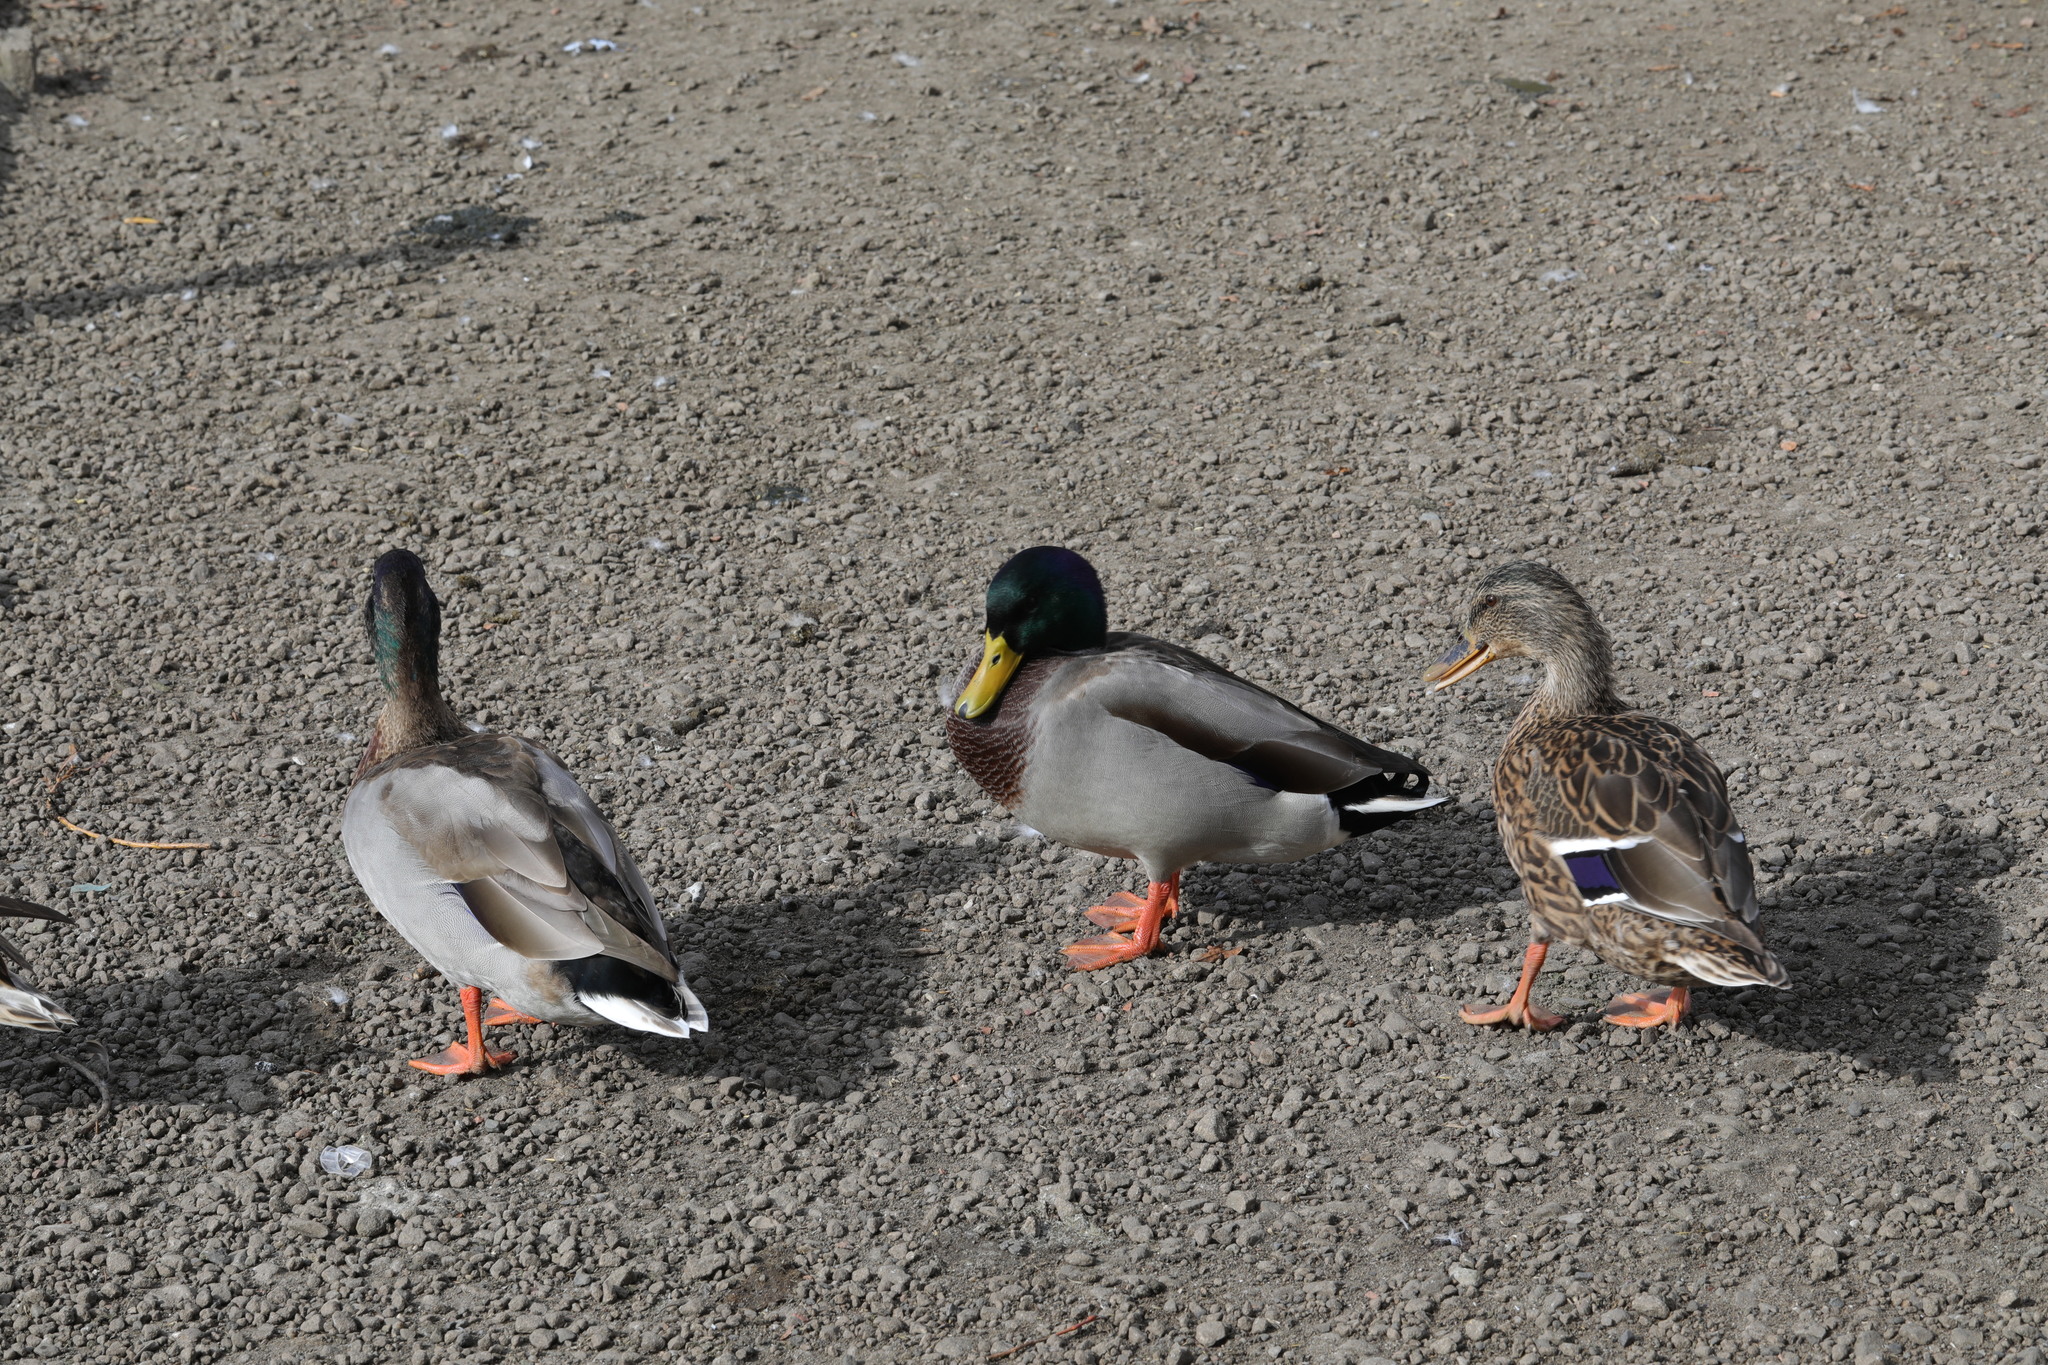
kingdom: Animalia
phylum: Chordata
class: Aves
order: Anseriformes
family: Anatidae
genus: Anas
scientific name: Anas platyrhynchos
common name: Mallard
